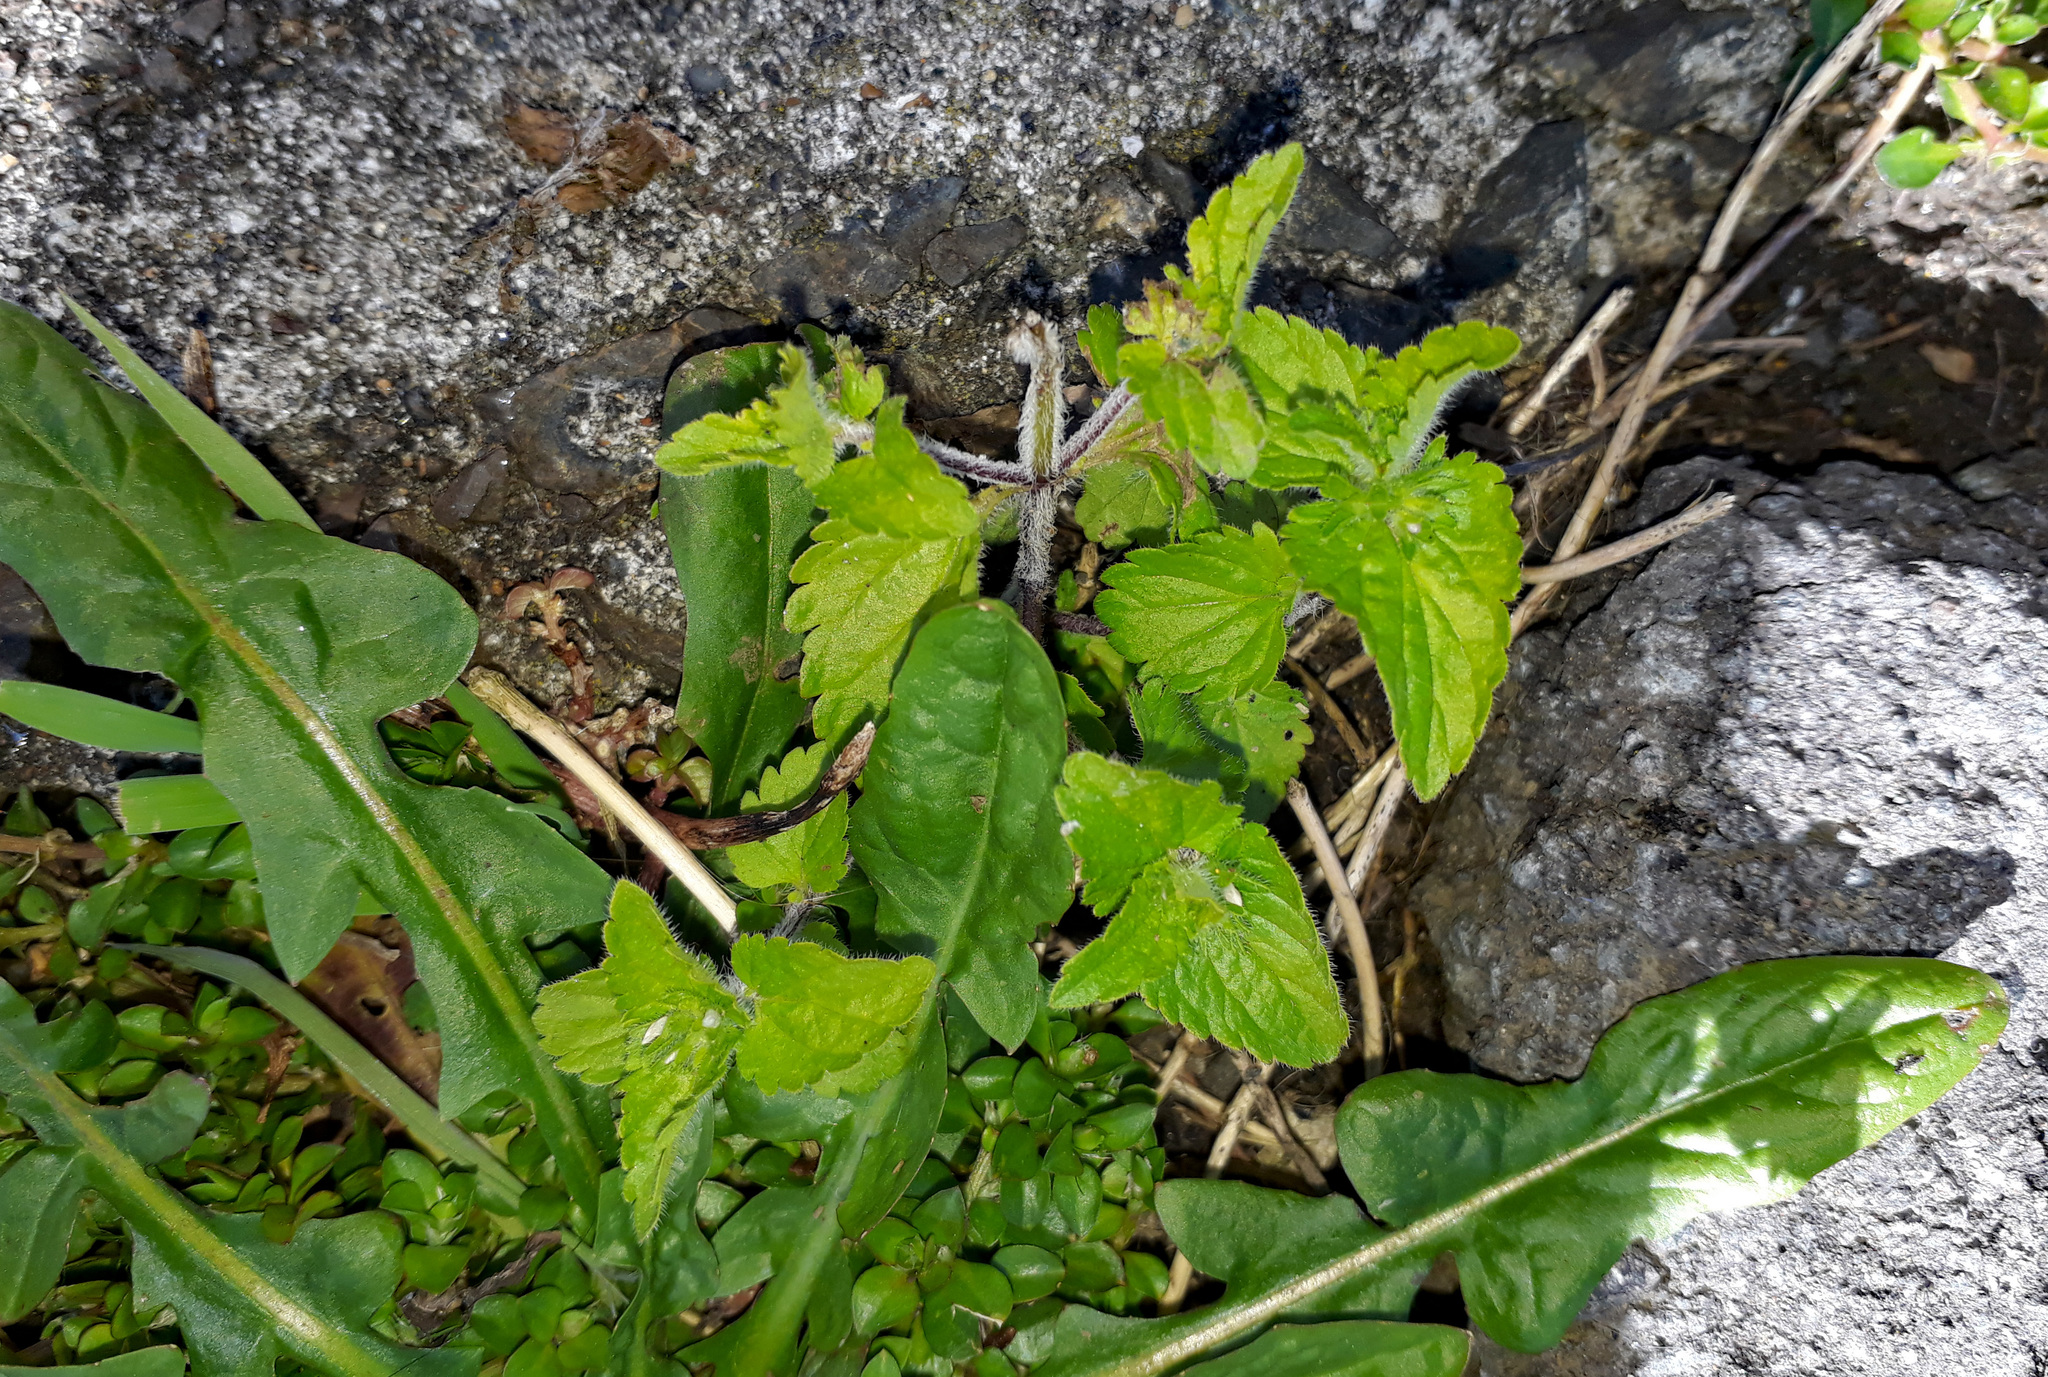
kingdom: Plantae
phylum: Tracheophyta
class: Magnoliopsida
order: Lamiales
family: Plantaginaceae
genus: Veronica
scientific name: Veronica javanica
